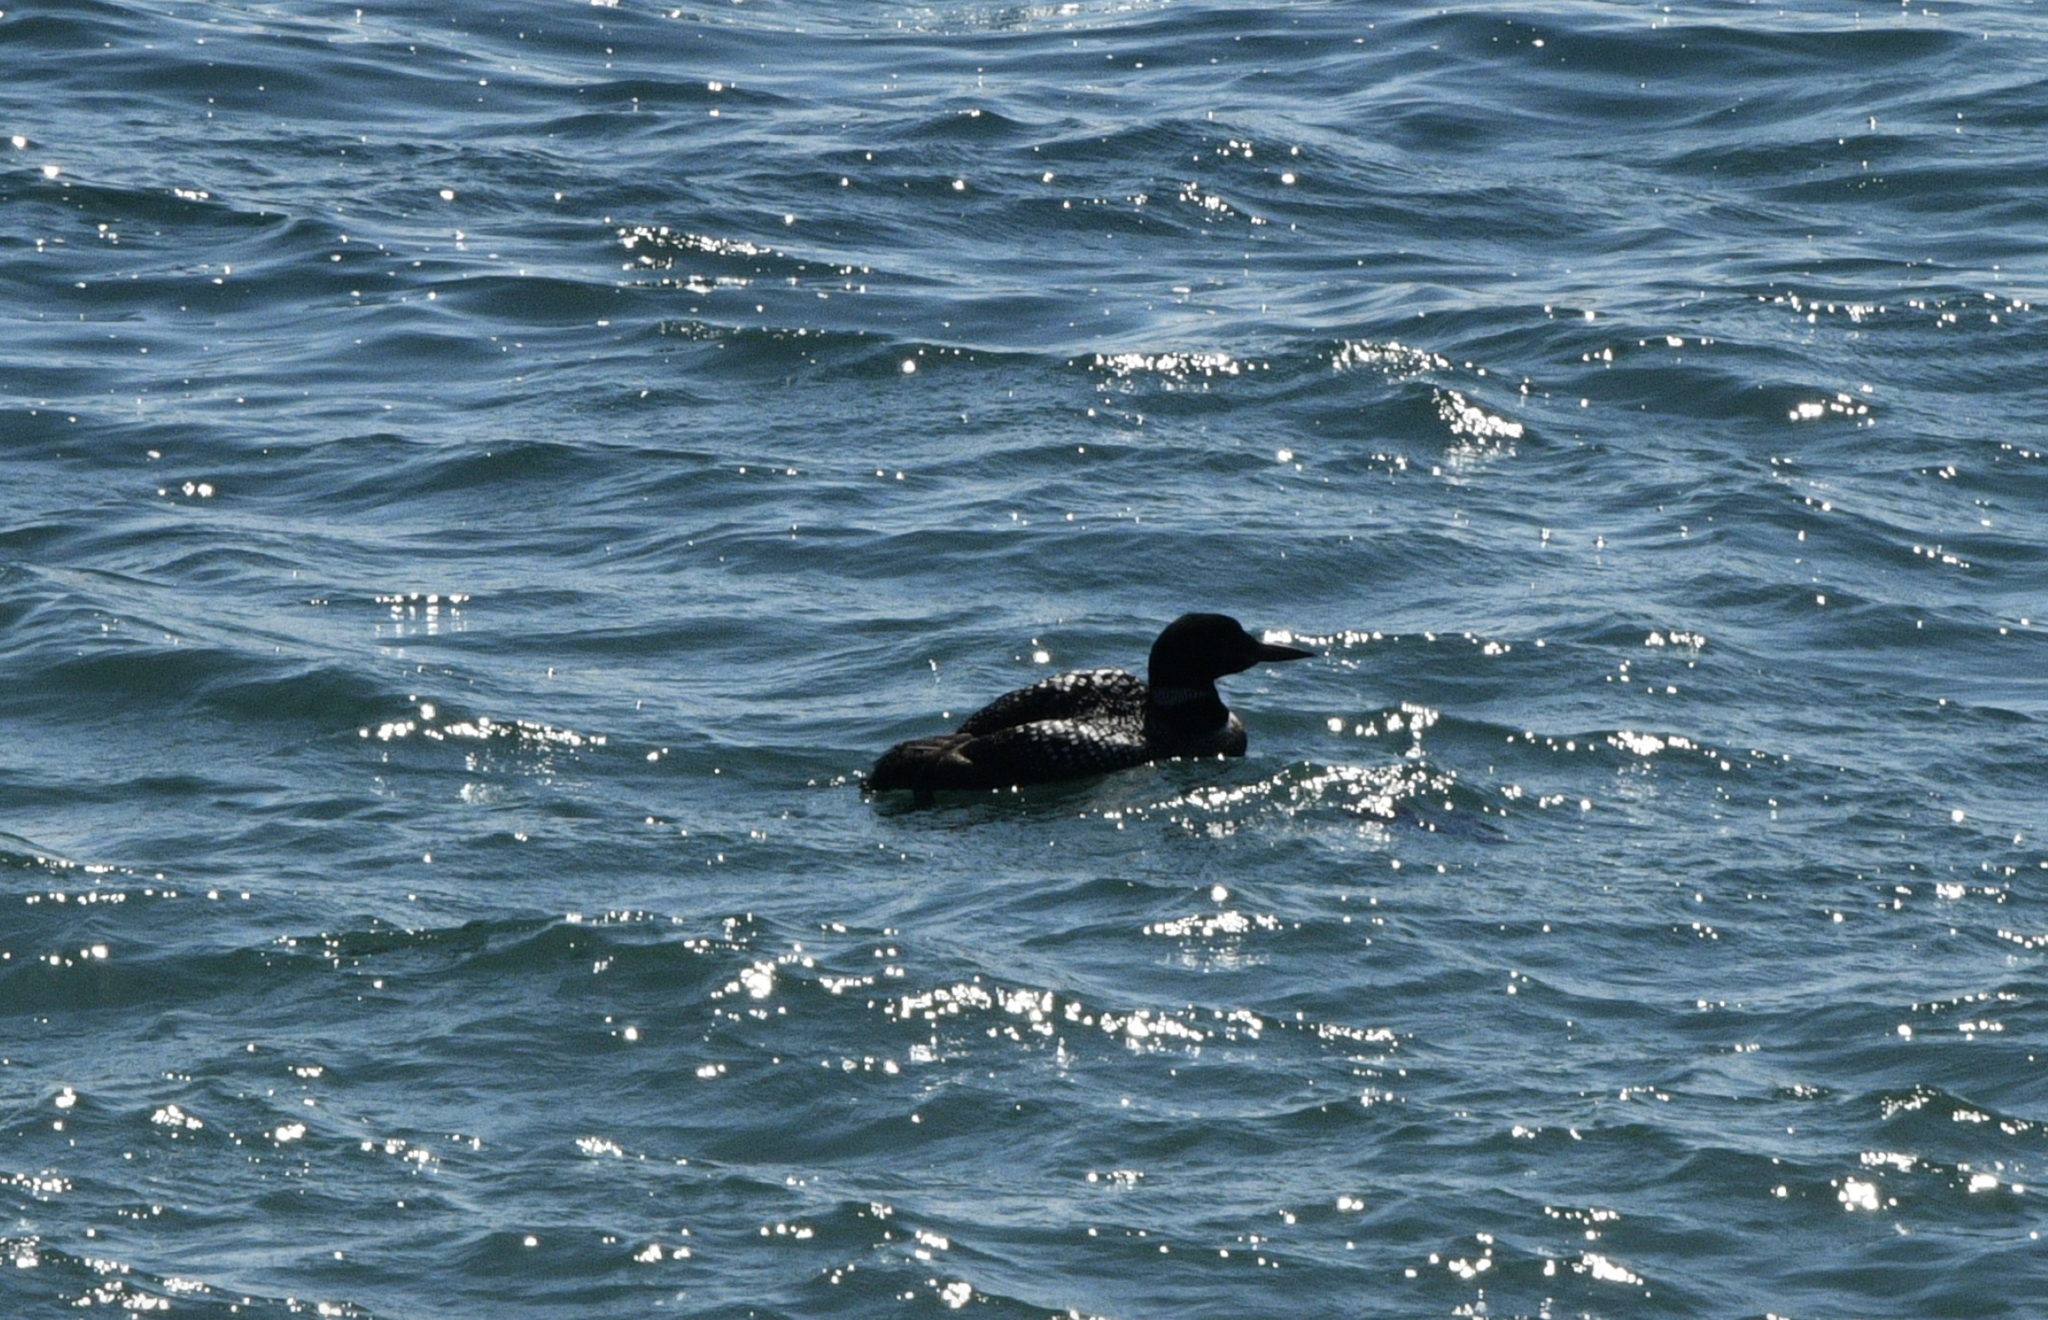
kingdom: Animalia
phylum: Chordata
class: Aves
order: Gaviiformes
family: Gaviidae
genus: Gavia
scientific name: Gavia immer
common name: Common loon
